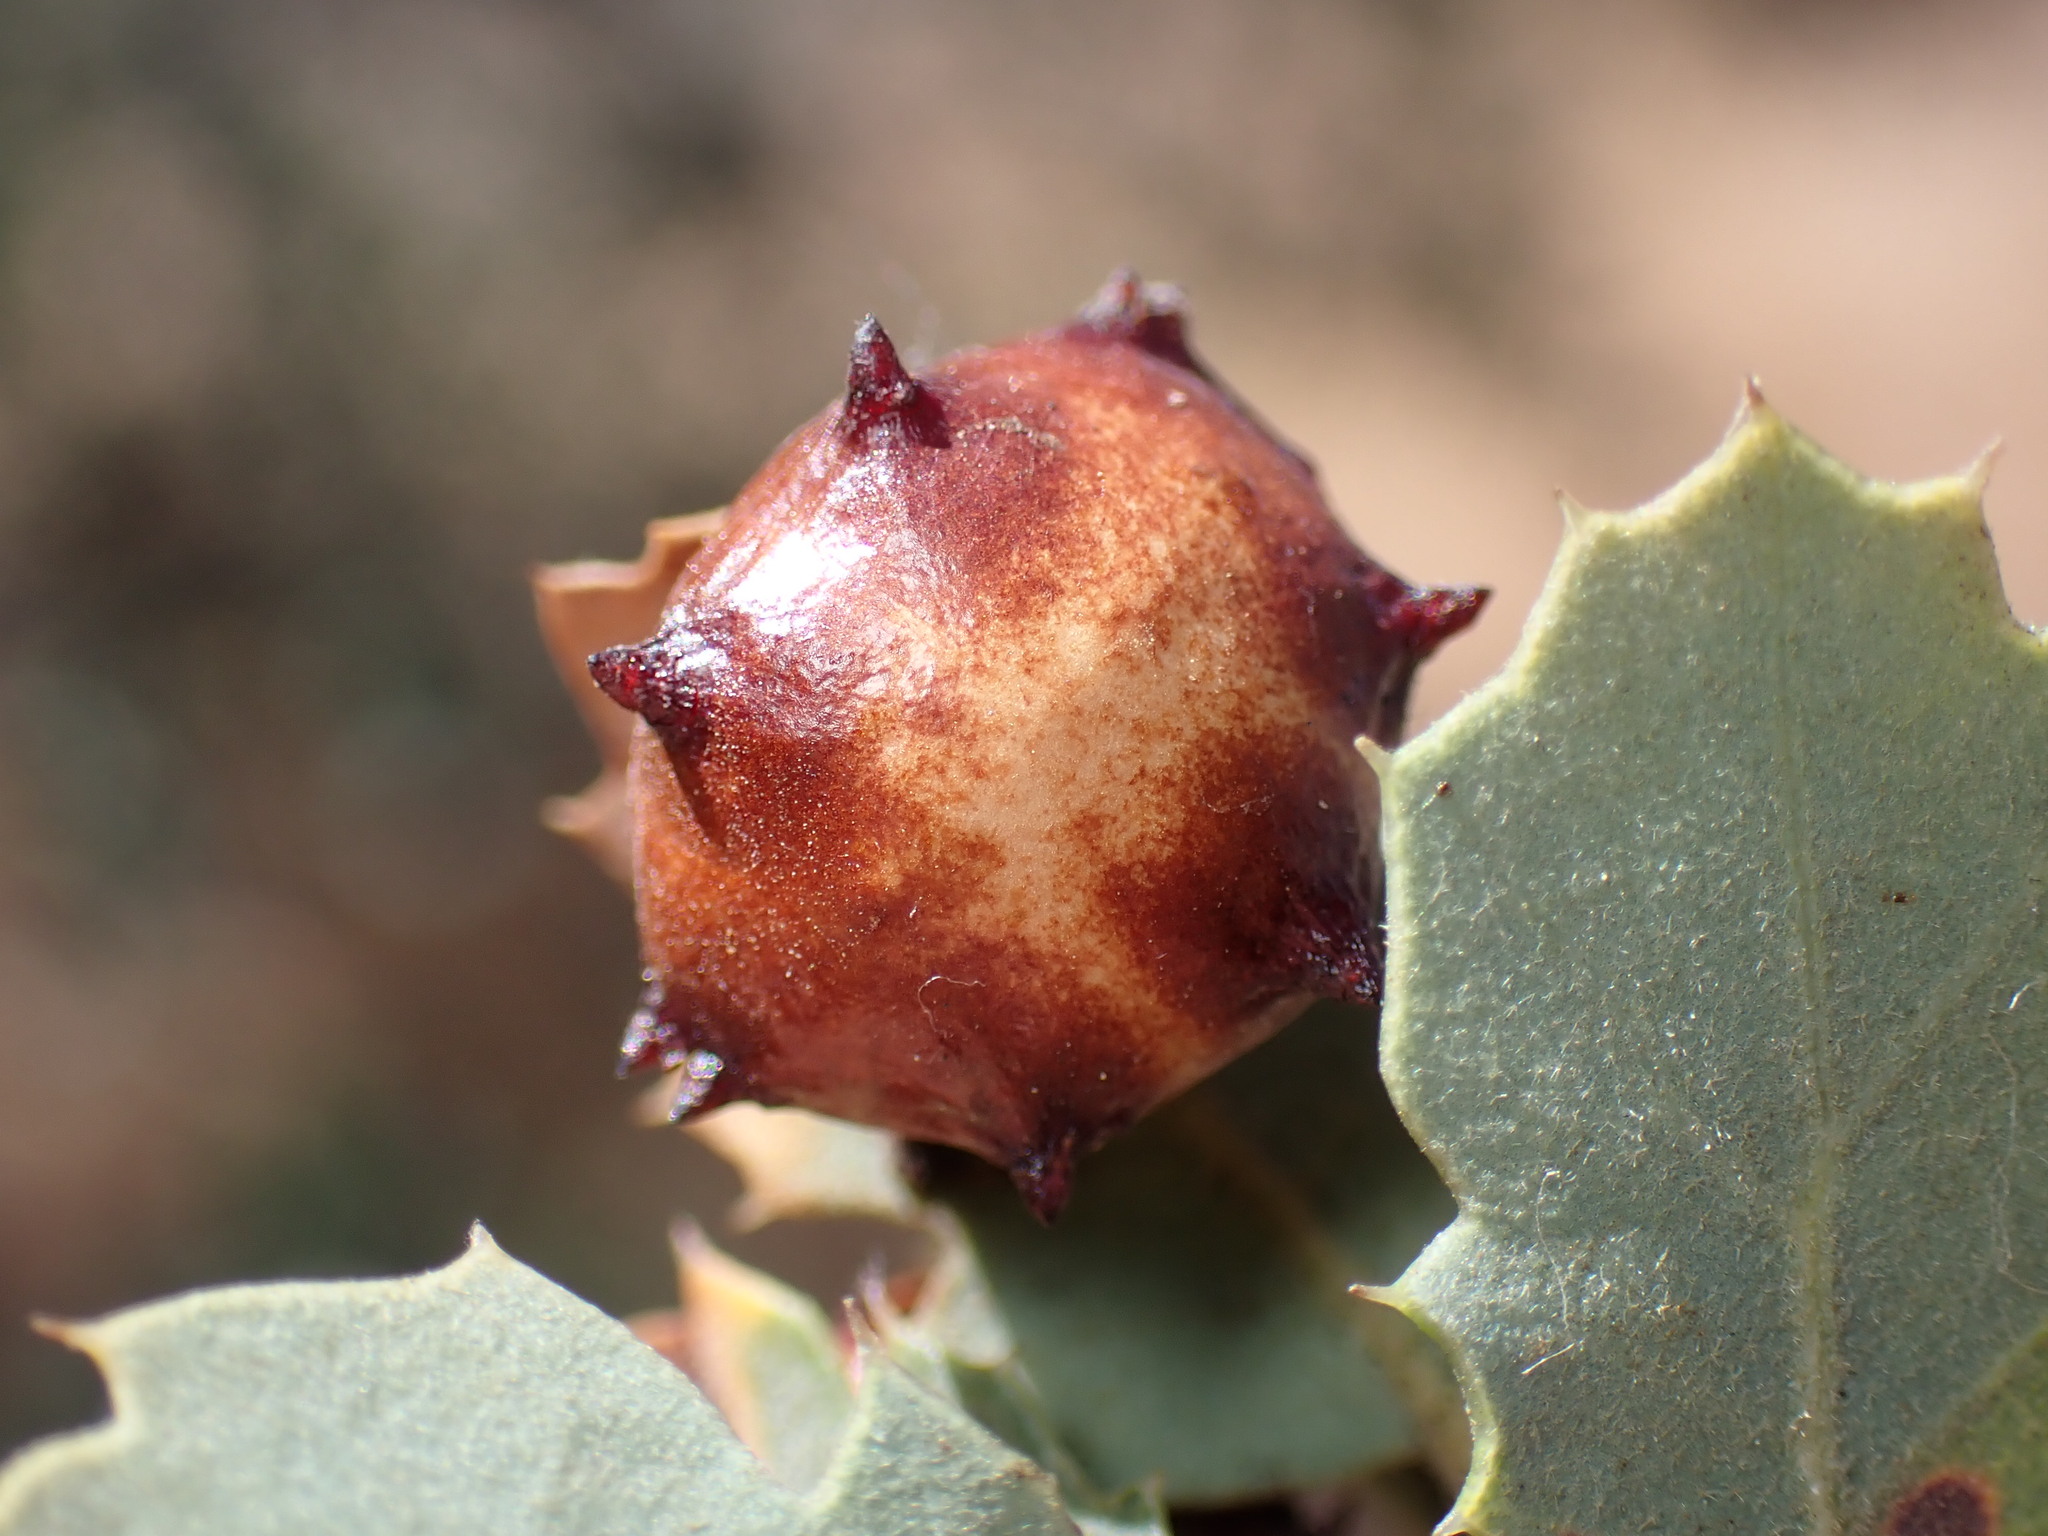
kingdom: Animalia
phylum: Arthropoda
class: Insecta
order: Hymenoptera
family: Cynipidae
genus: Cynips
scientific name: Cynips douglasi
